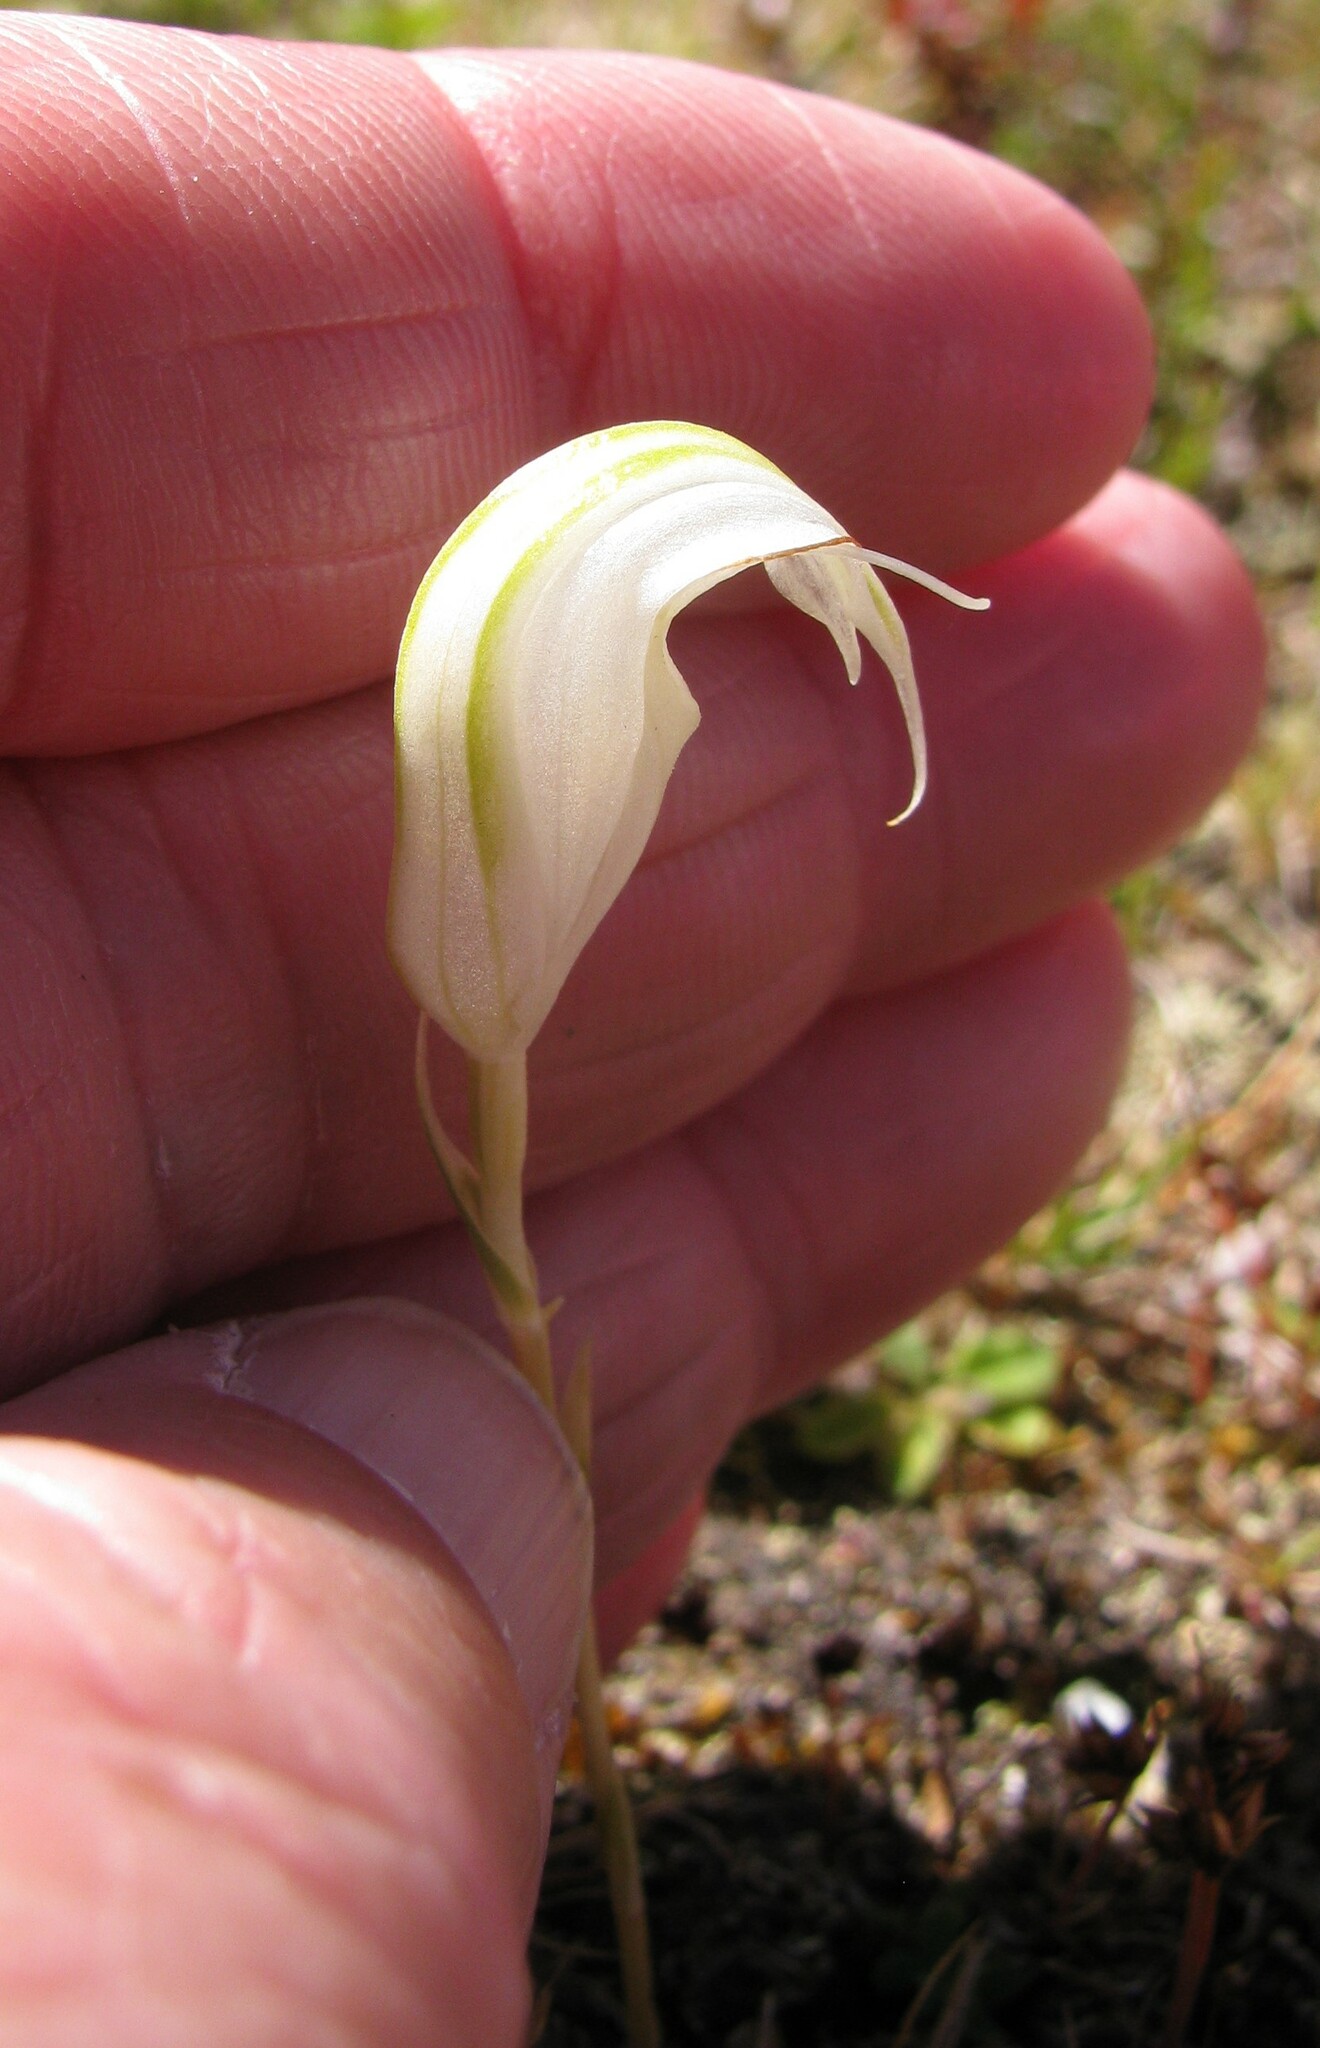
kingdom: Plantae
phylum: Tracheophyta
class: Liliopsida
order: Asparagales
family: Orchidaceae
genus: Pterostylis
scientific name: Pterostylis decurva
